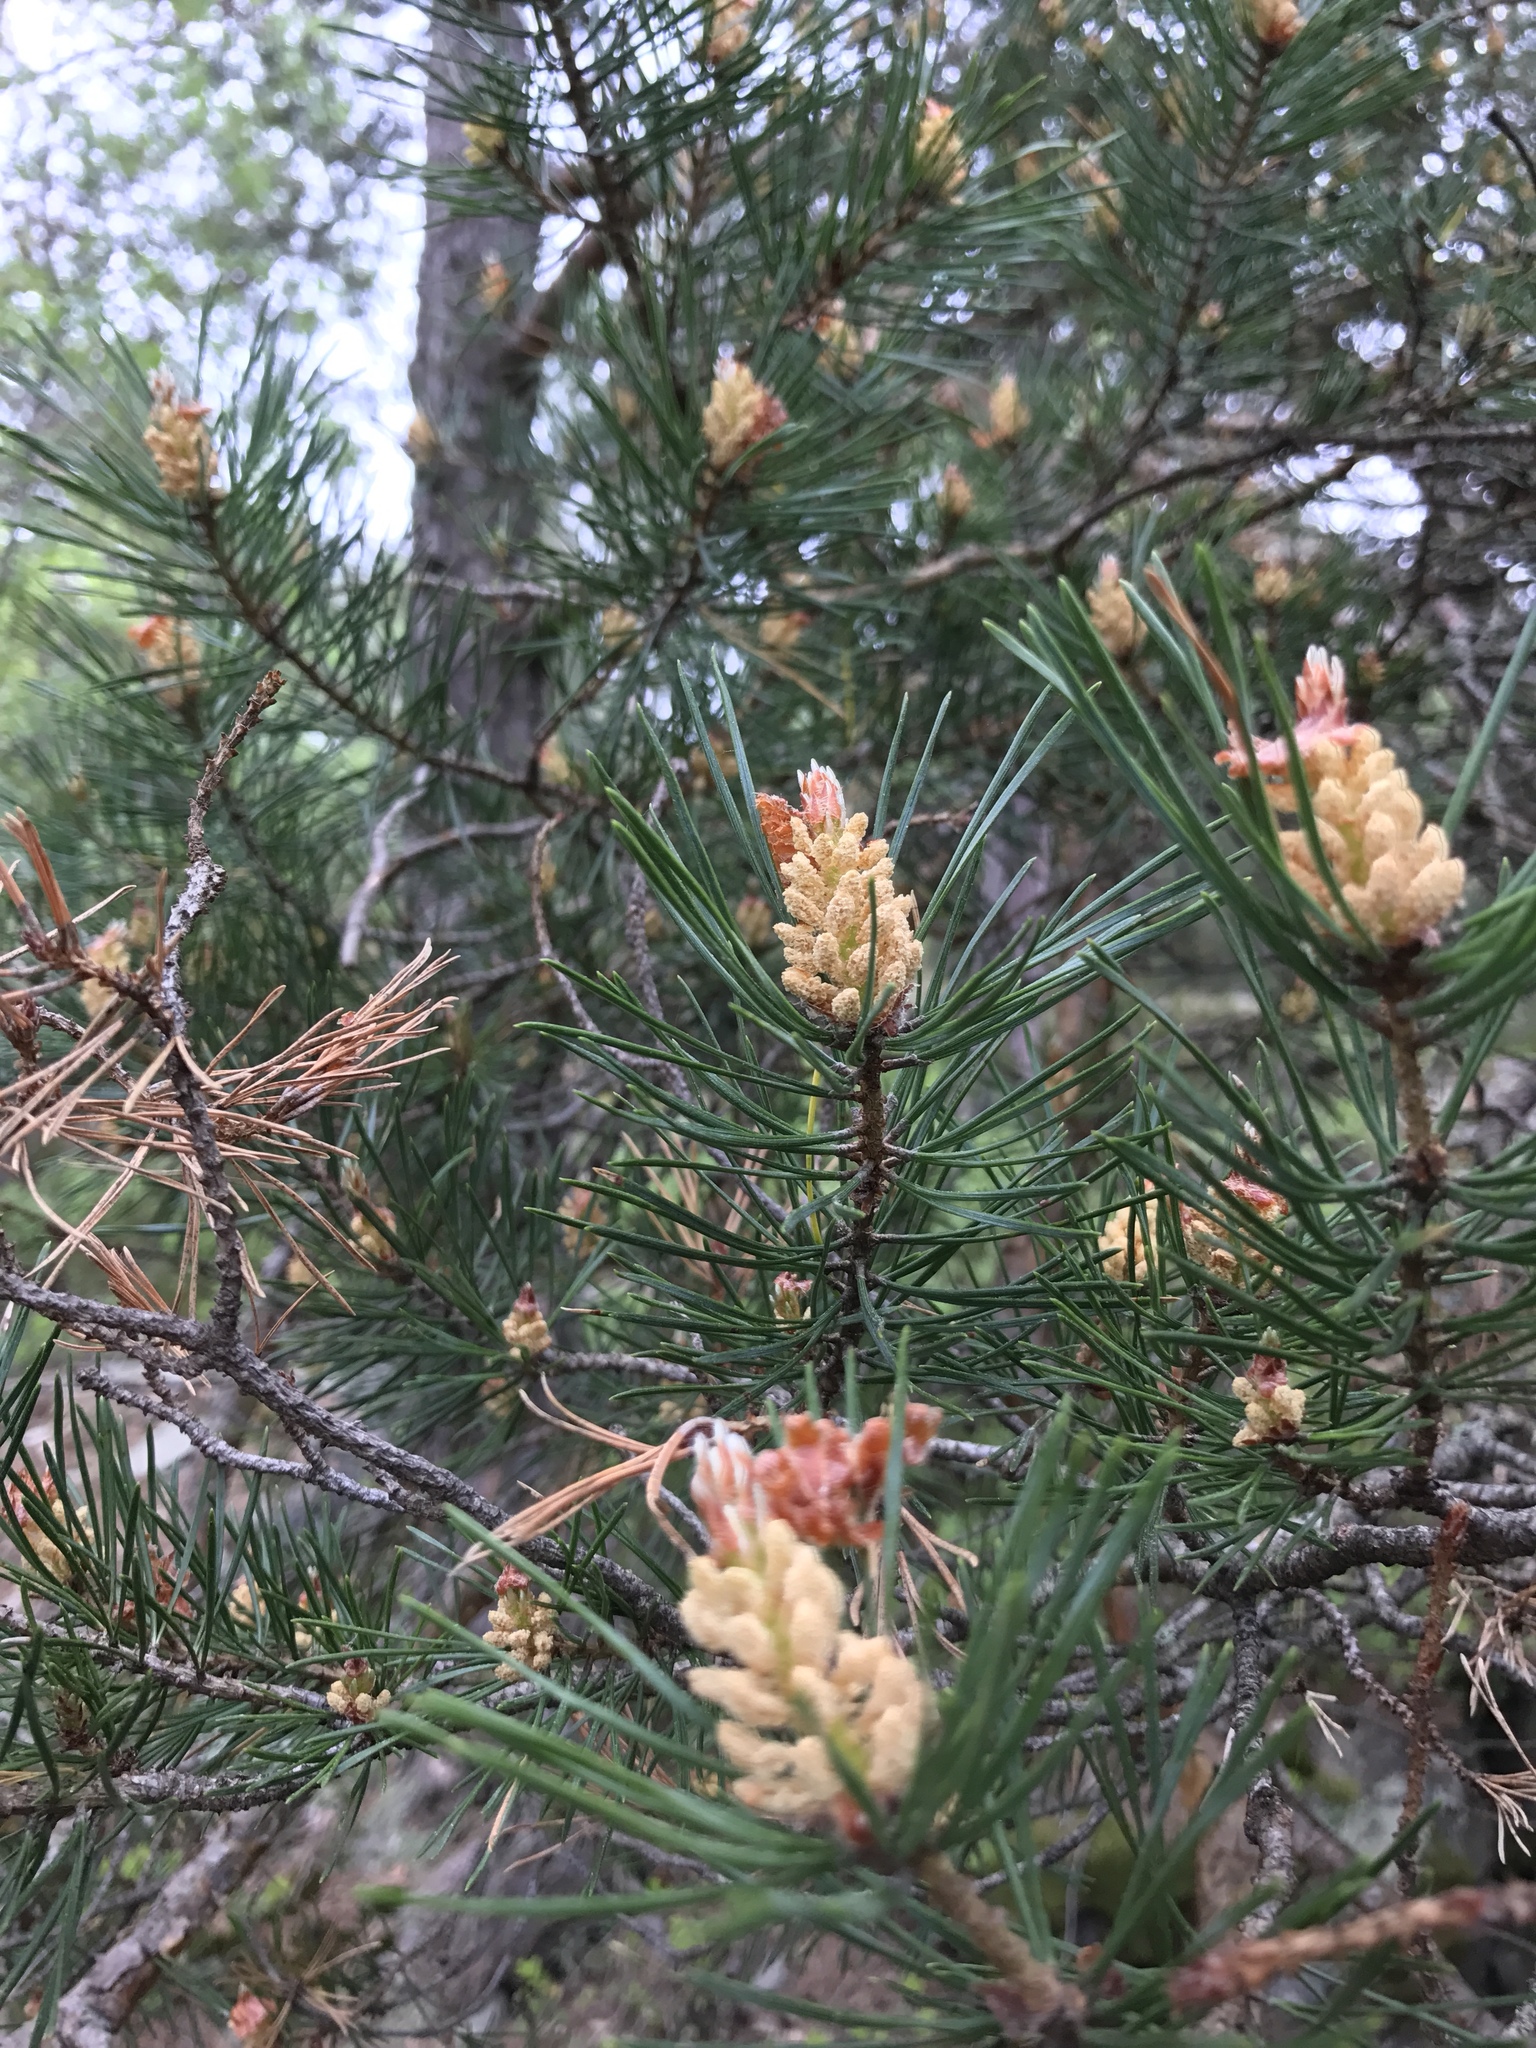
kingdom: Plantae
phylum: Tracheophyta
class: Pinopsida
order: Pinales
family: Pinaceae
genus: Pinus
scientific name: Pinus sylvestris
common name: Scots pine
